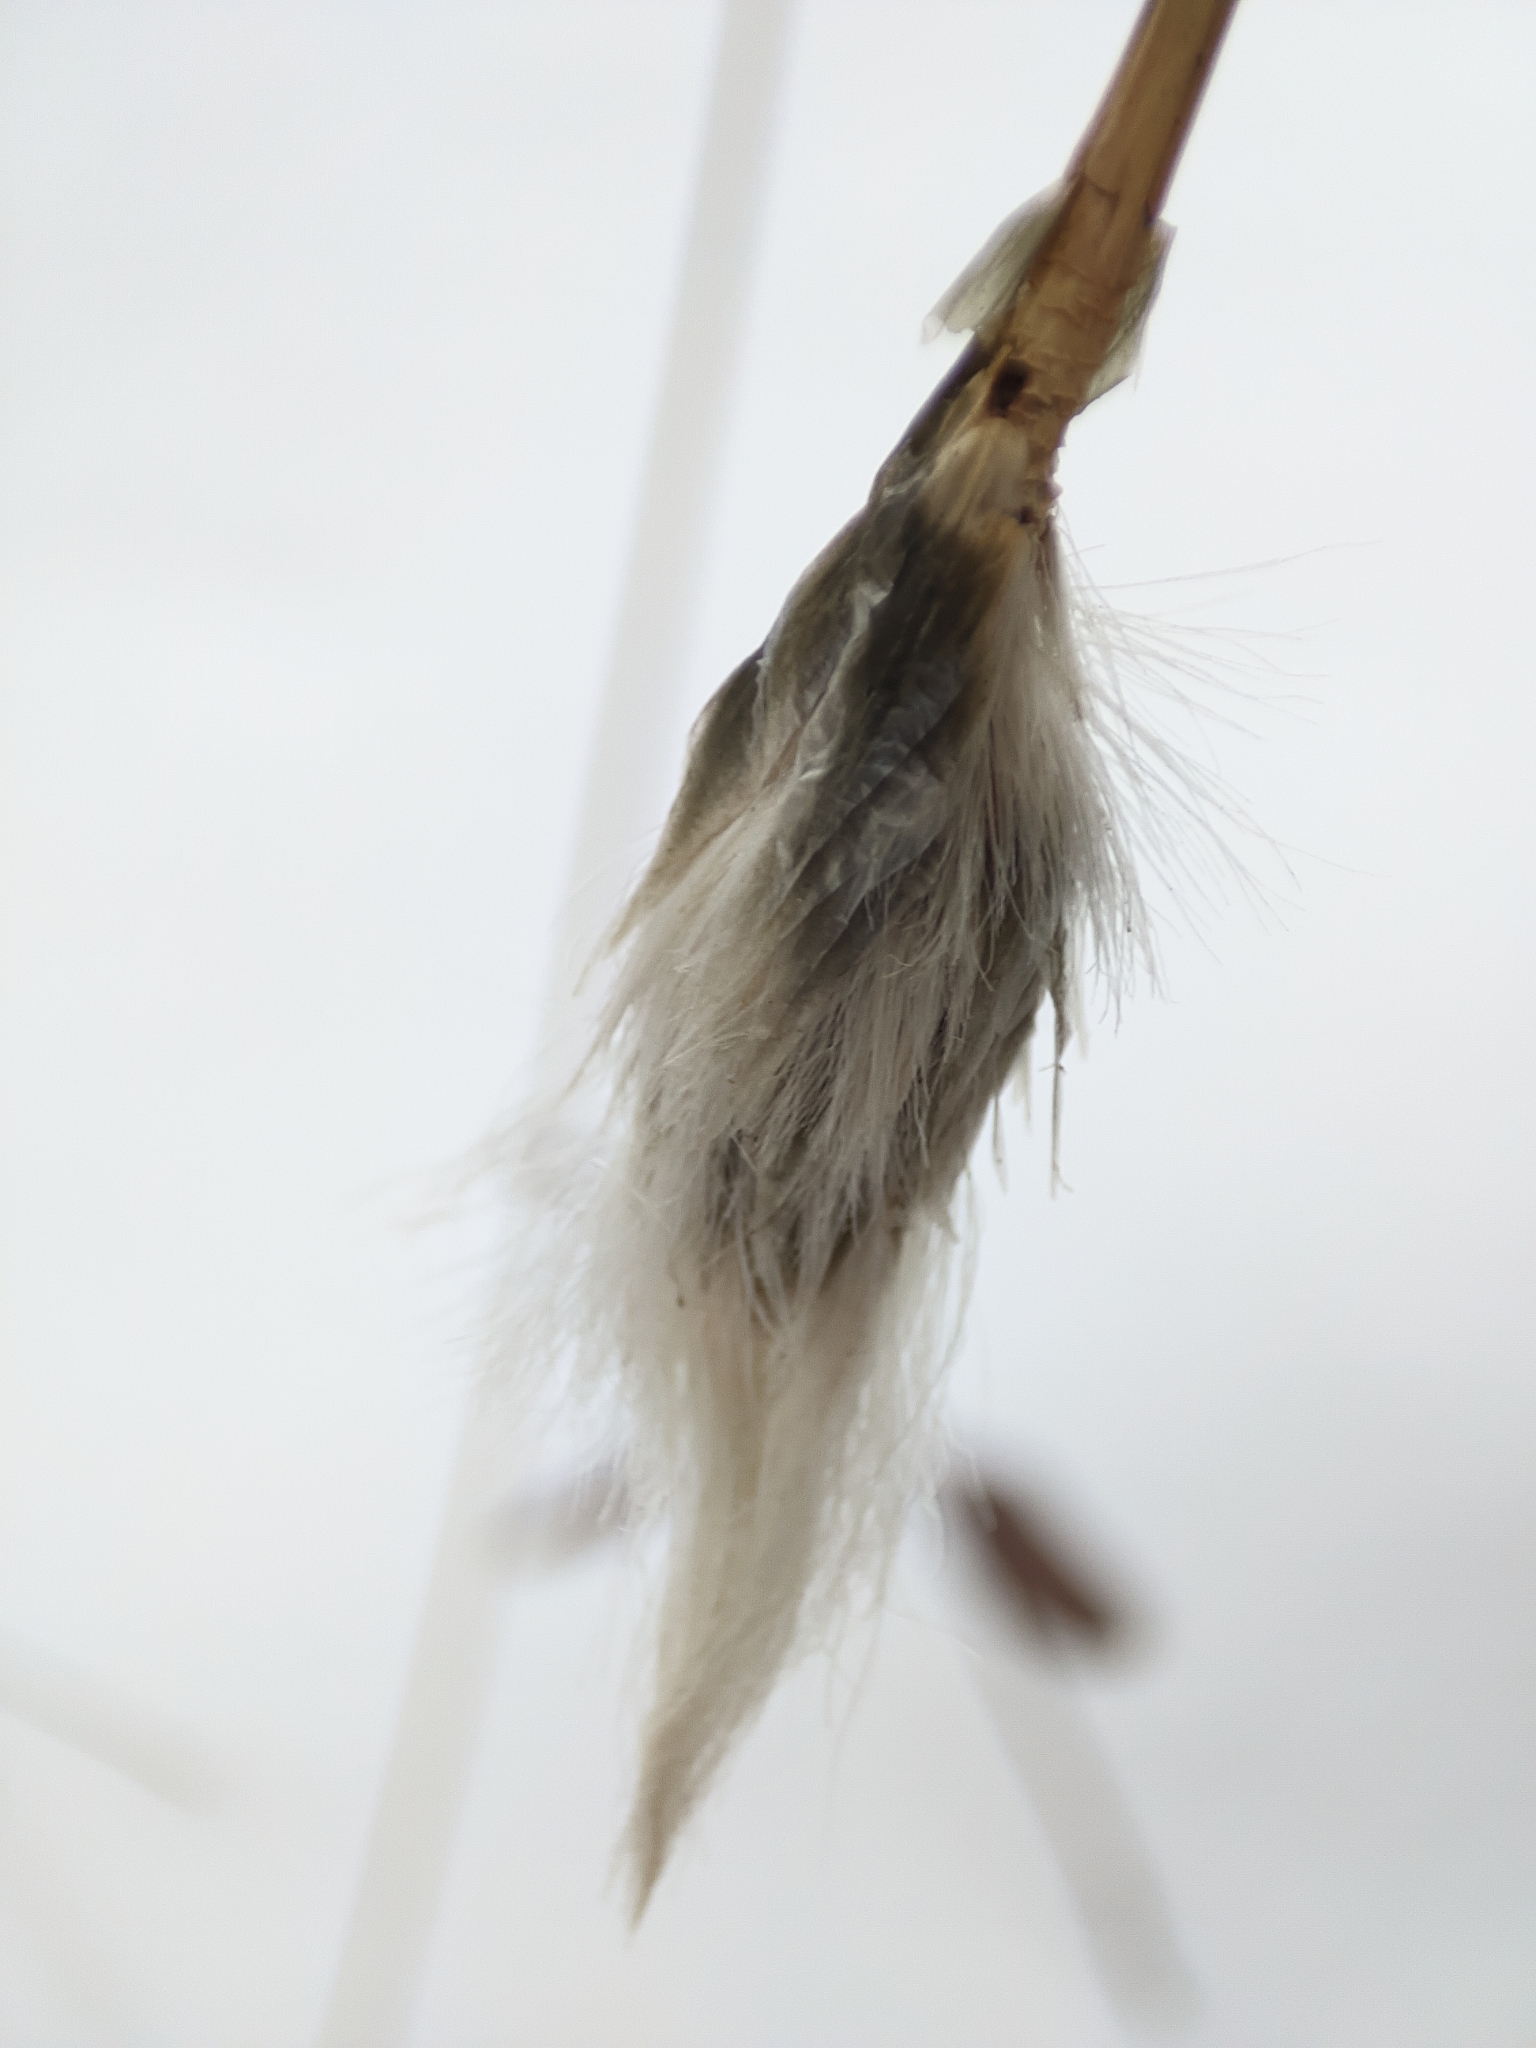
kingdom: Plantae
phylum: Tracheophyta
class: Liliopsida
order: Poales
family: Cyperaceae
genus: Eriophorum
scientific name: Eriophorum vaginatum
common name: Hare's-tail cottongrass
